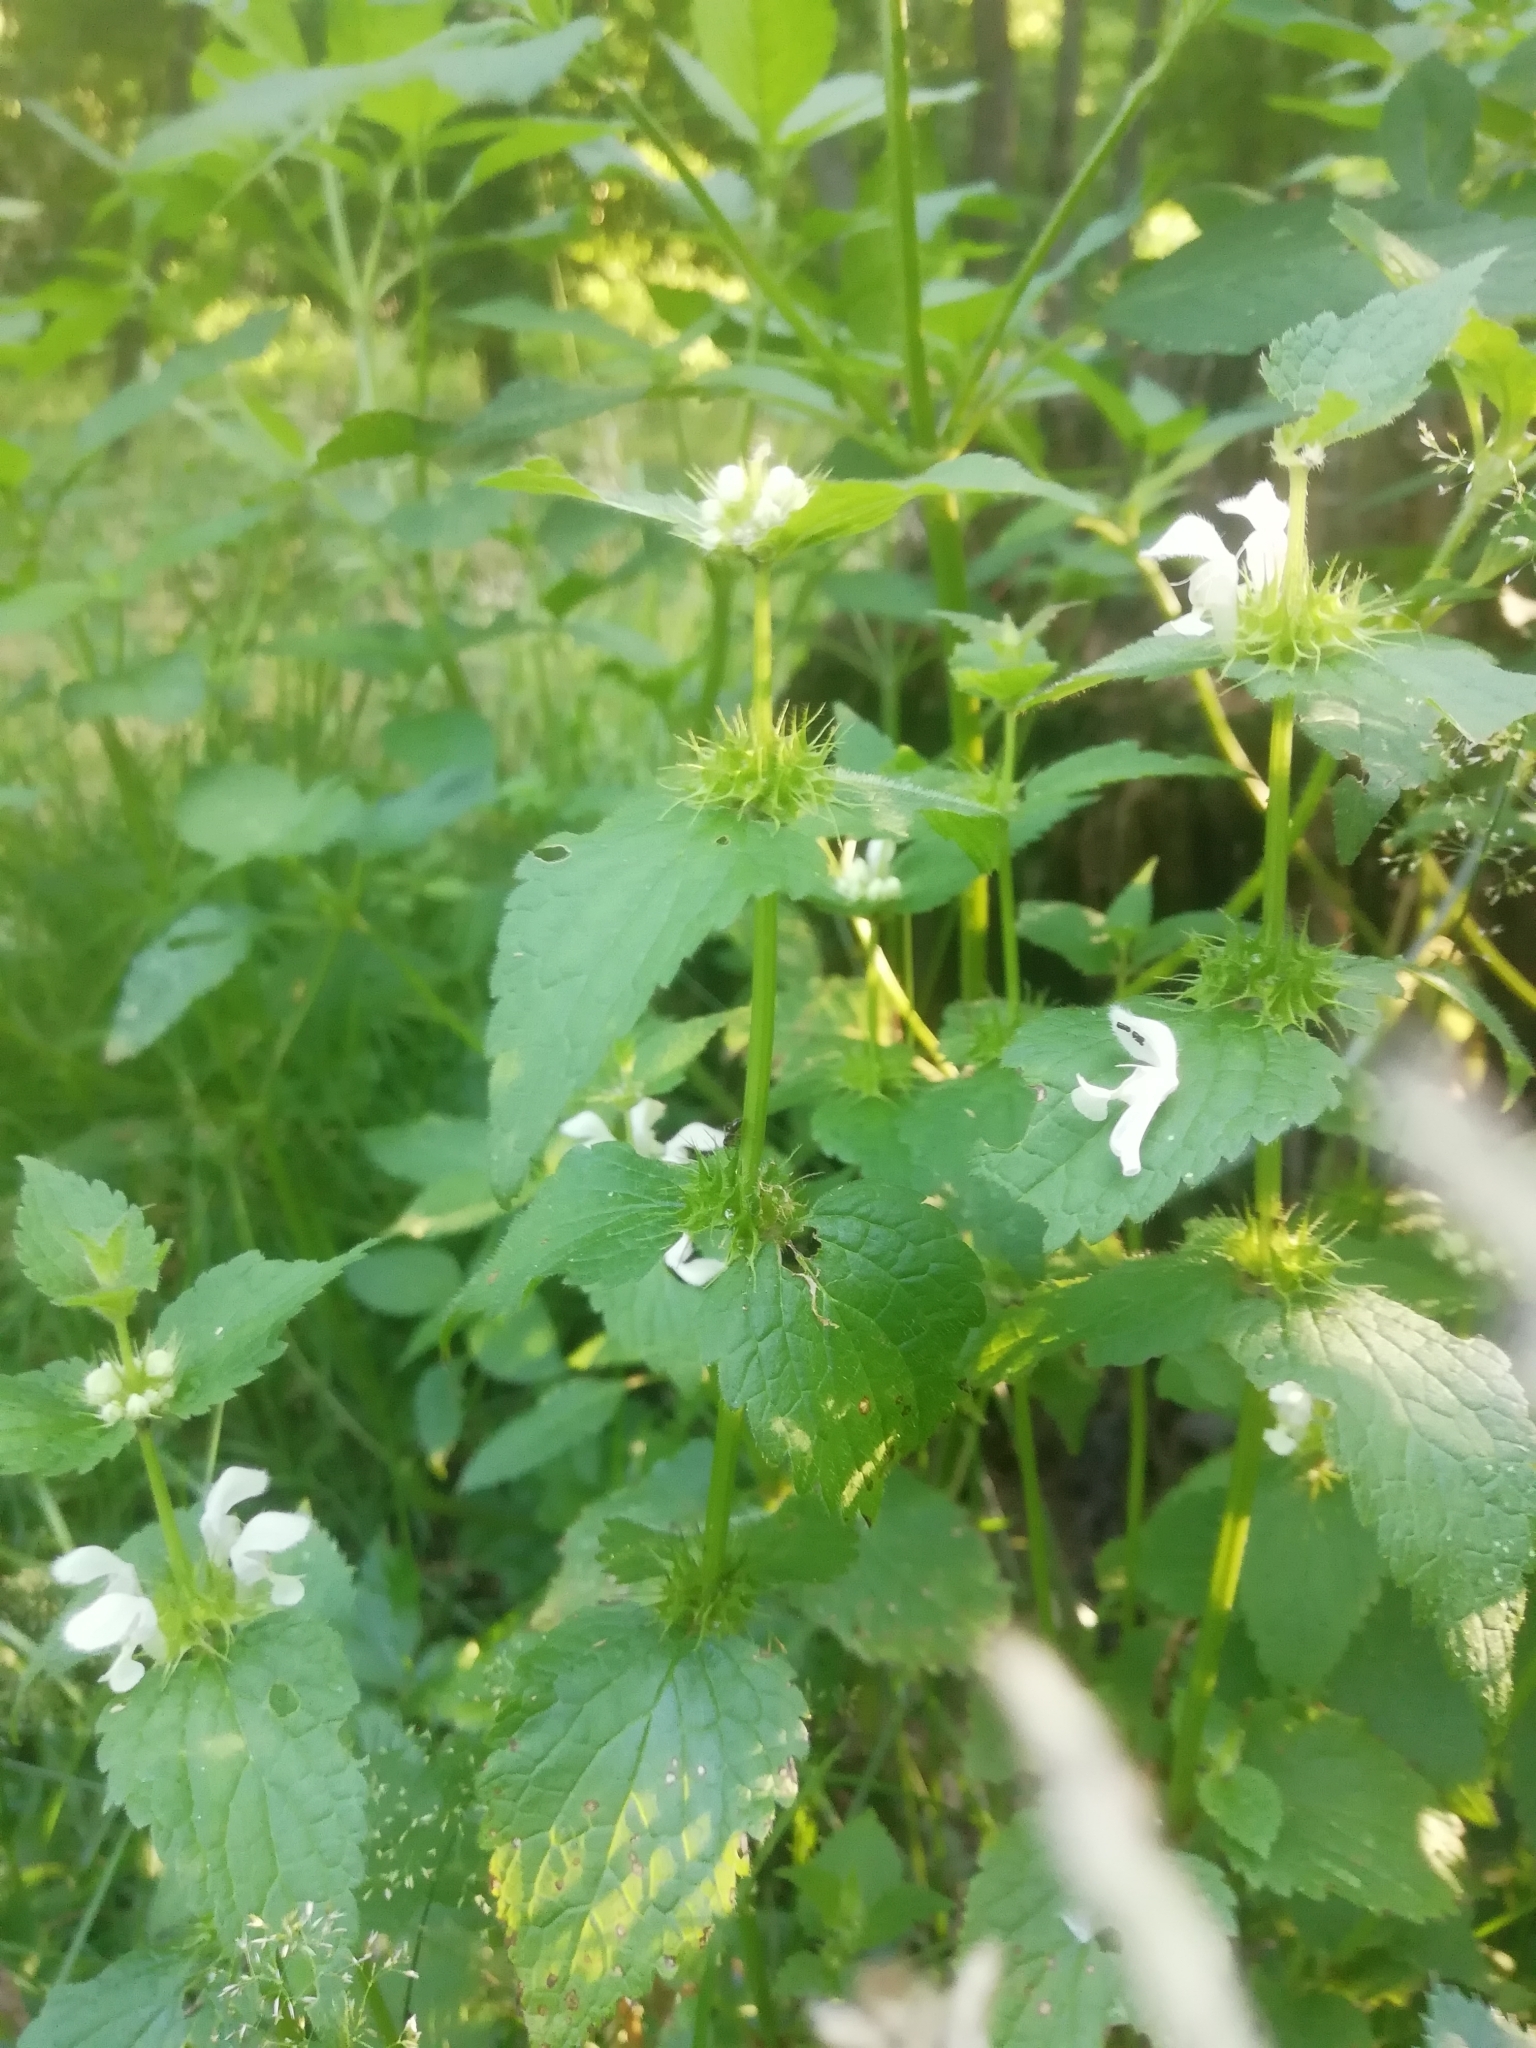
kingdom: Plantae
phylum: Tracheophyta
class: Magnoliopsida
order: Lamiales
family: Lamiaceae
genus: Lamium
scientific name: Lamium album
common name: White dead-nettle
